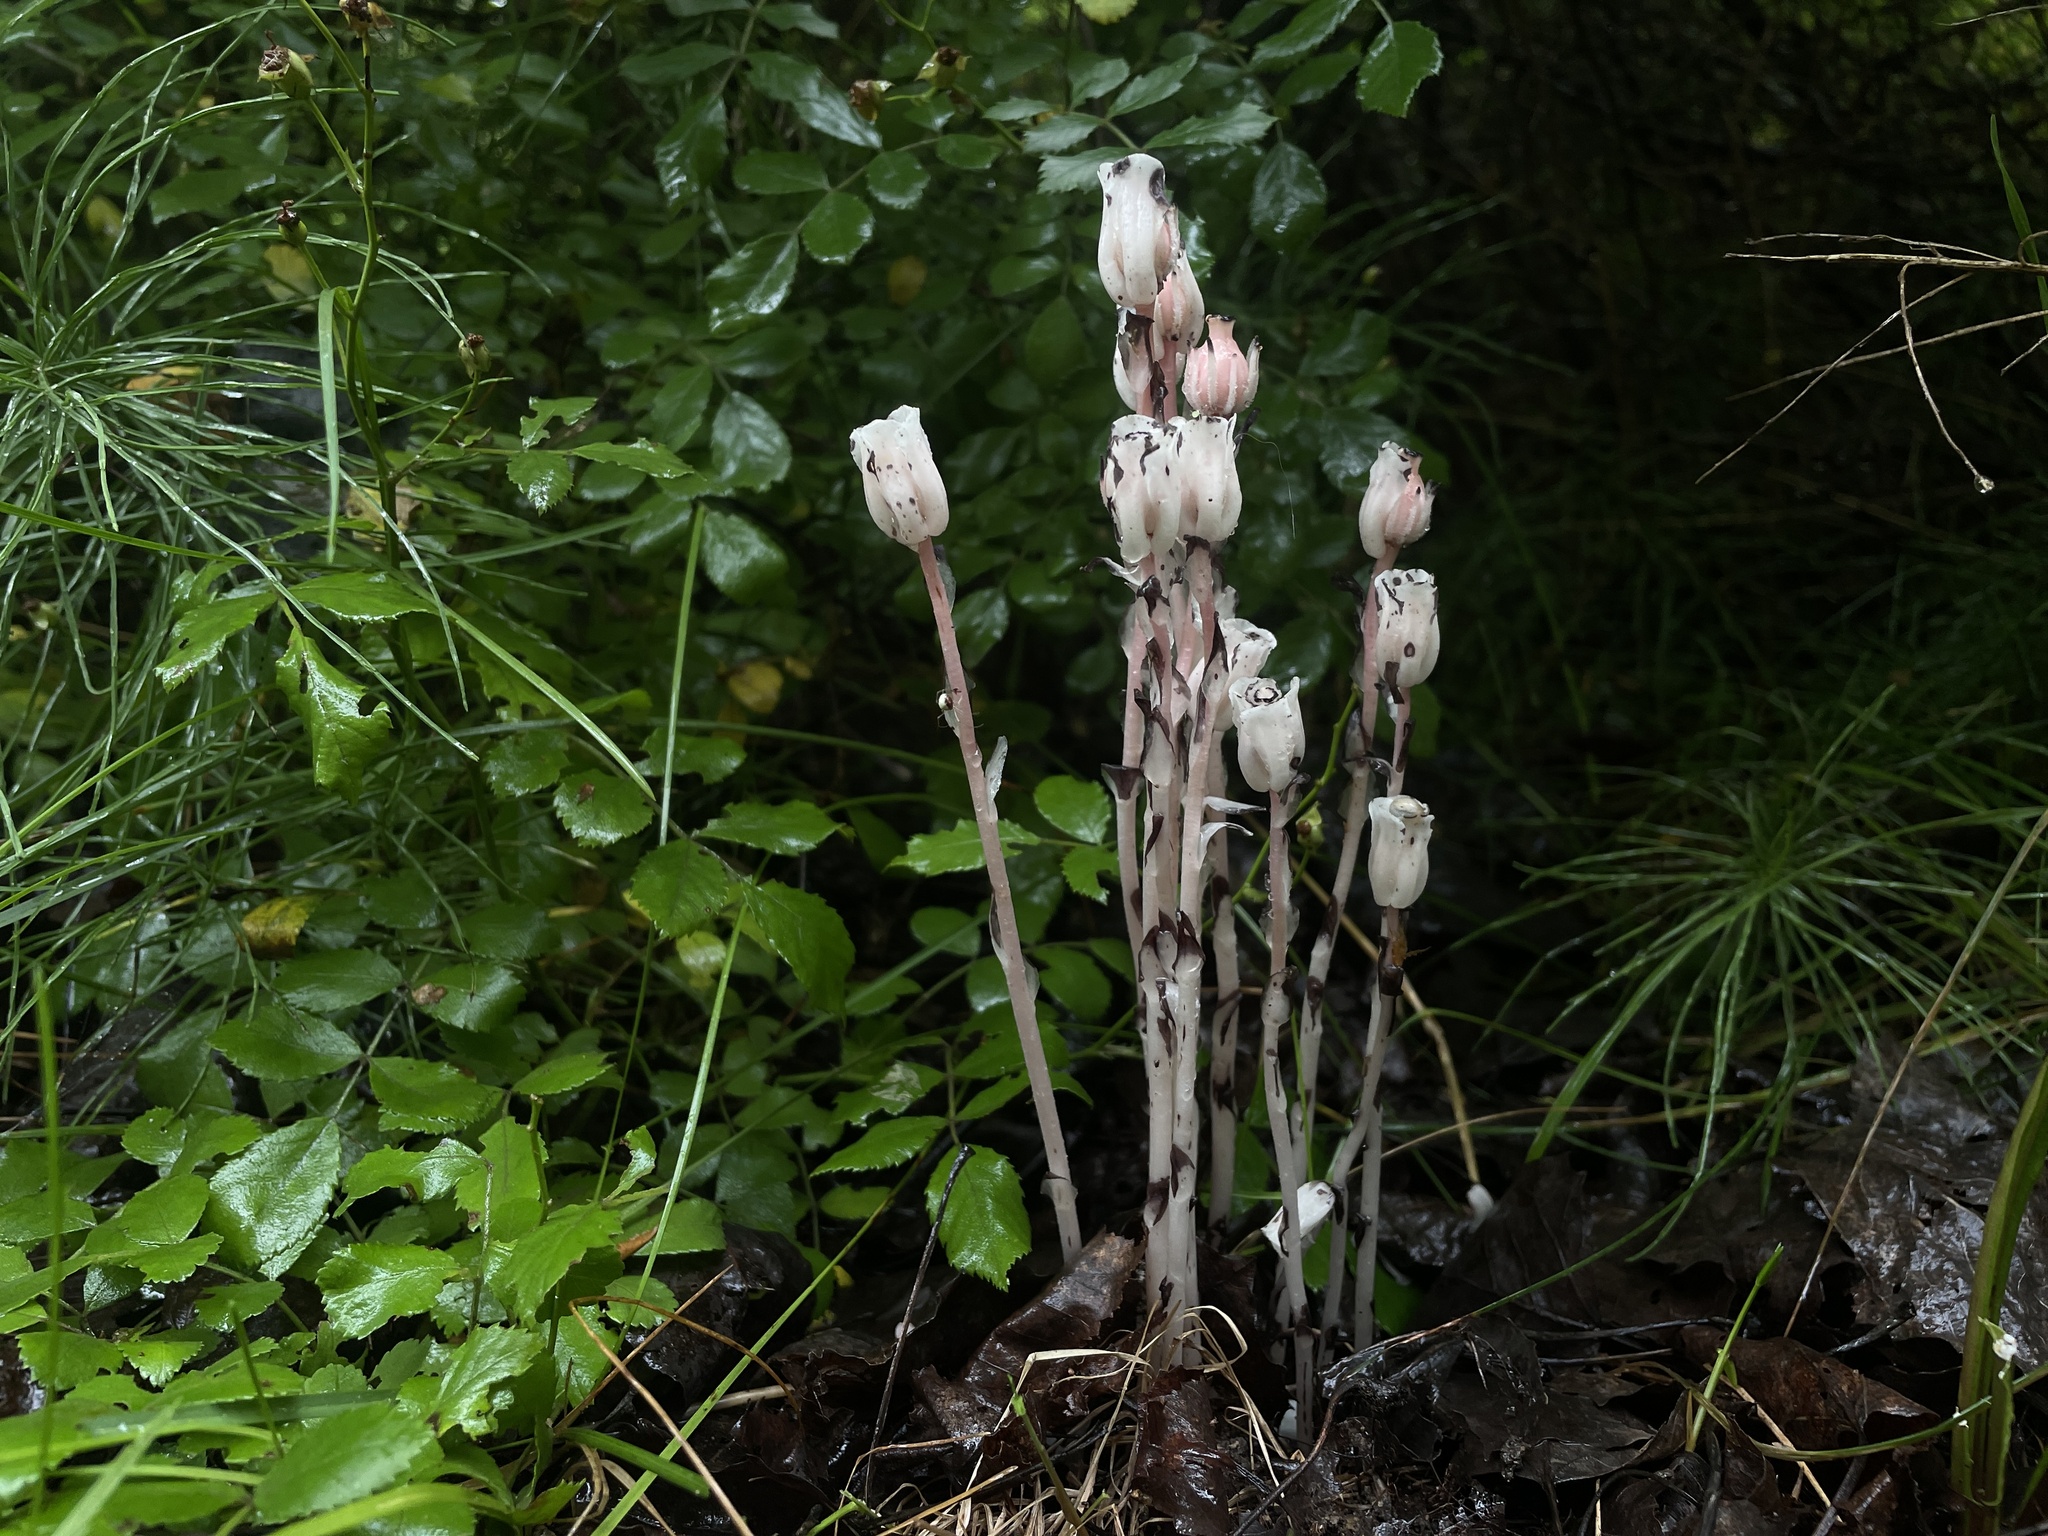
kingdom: Plantae
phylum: Tracheophyta
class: Magnoliopsida
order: Ericales
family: Ericaceae
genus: Monotropa
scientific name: Monotropa uniflora
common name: Convulsion root
